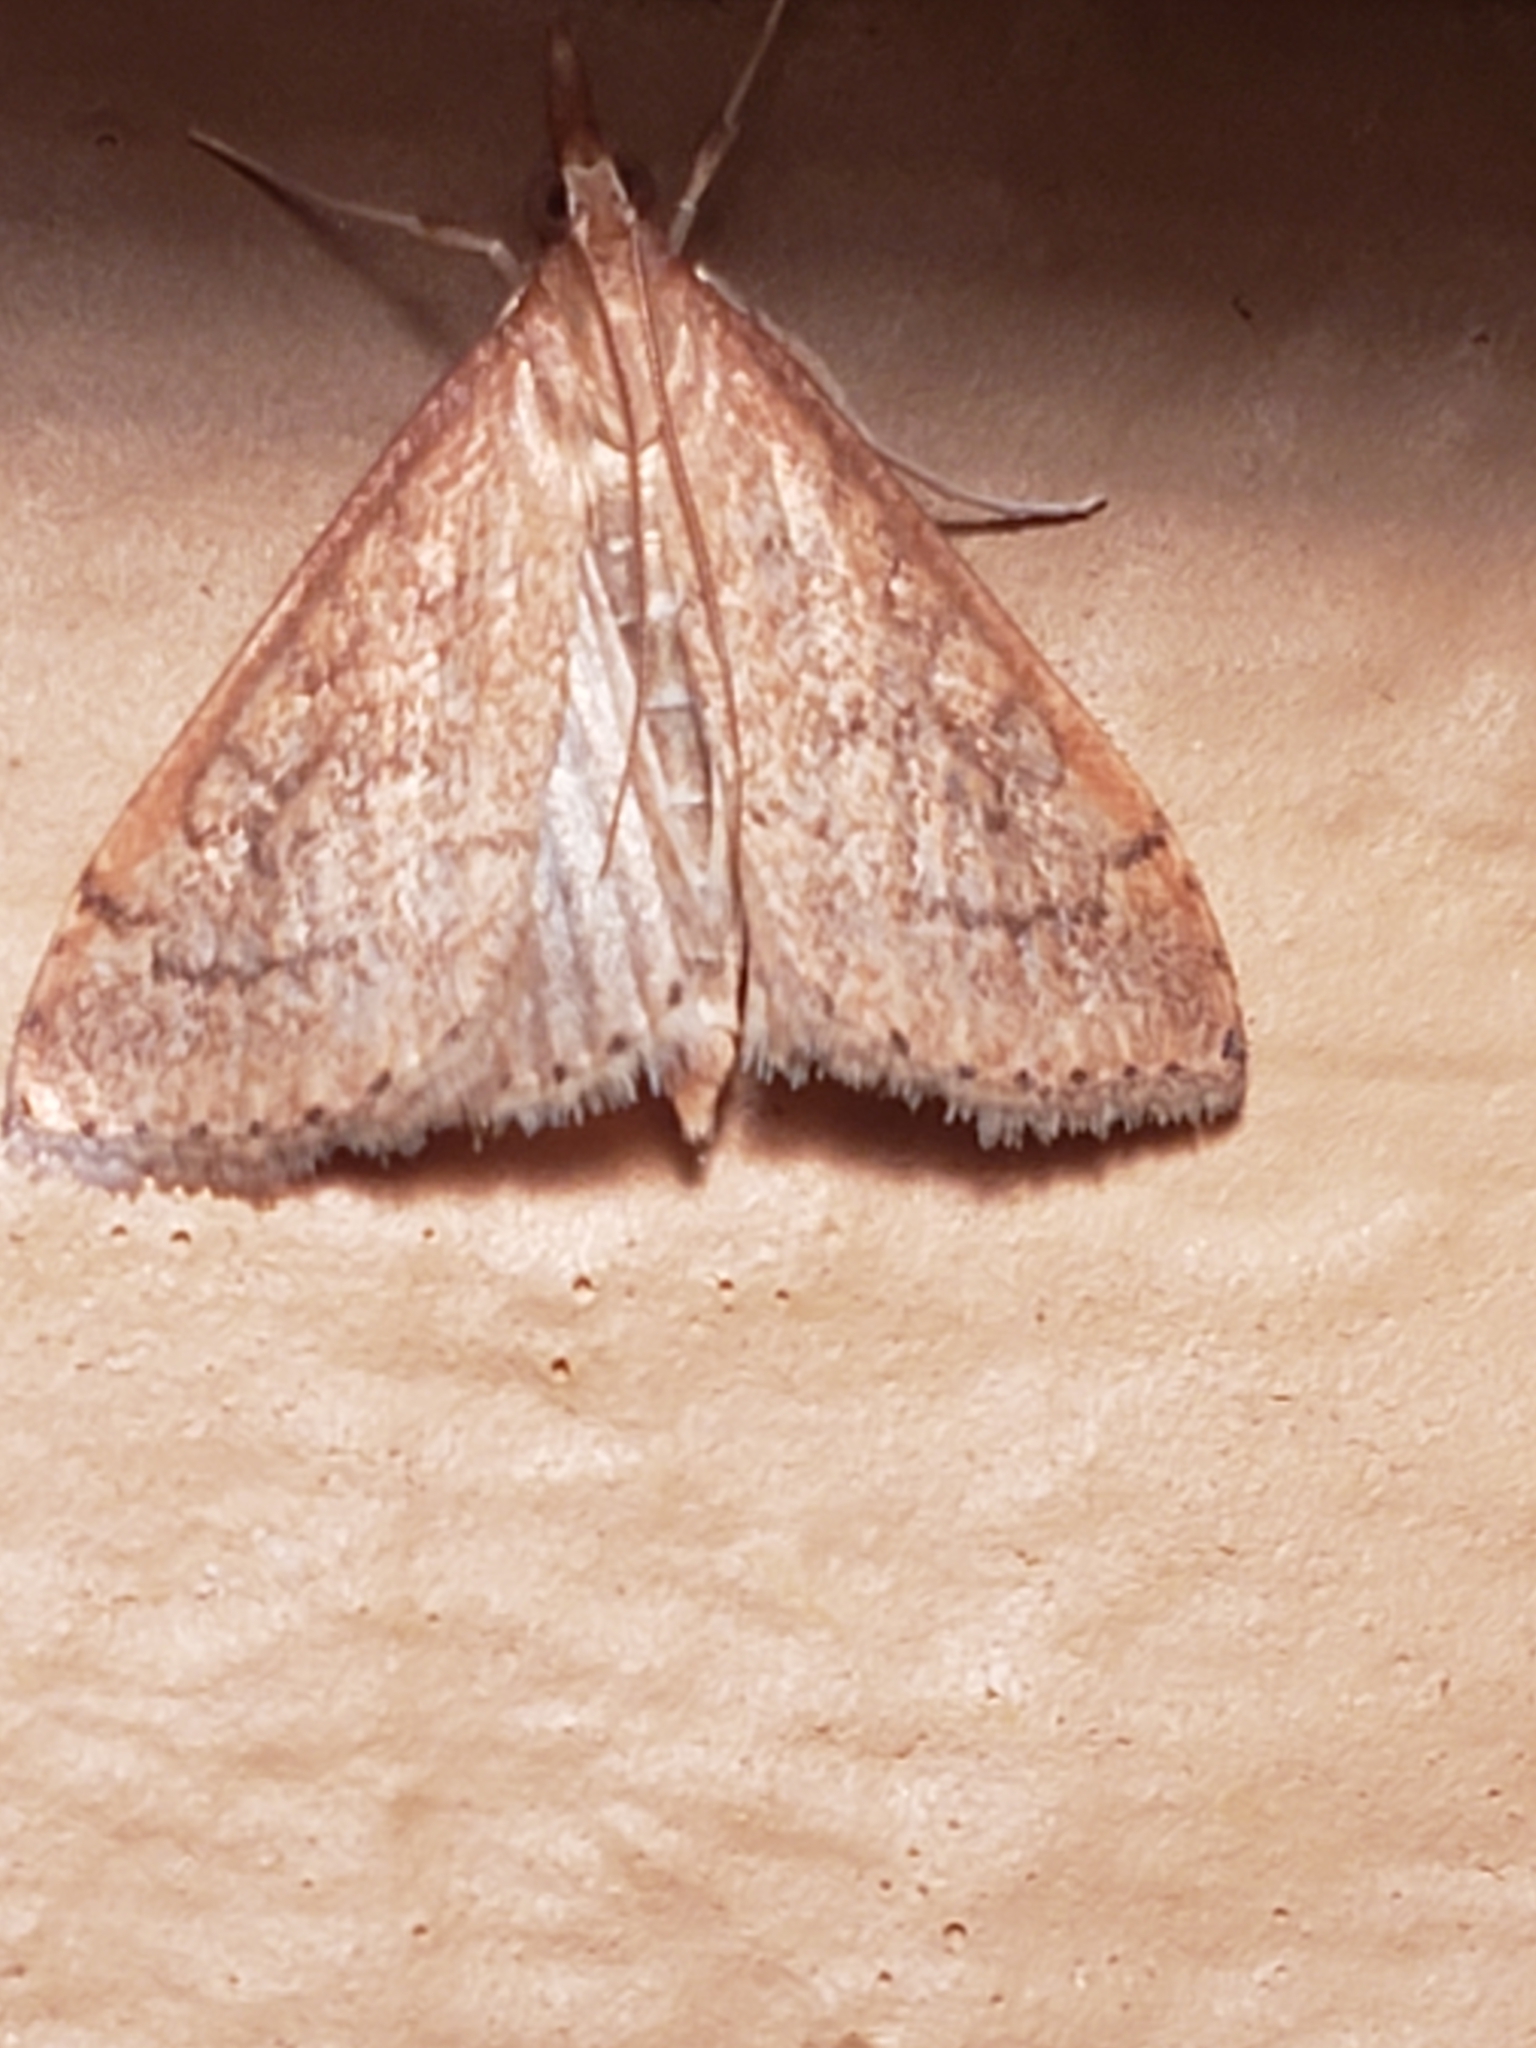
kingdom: Animalia
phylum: Arthropoda
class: Insecta
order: Lepidoptera
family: Crambidae
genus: Udea
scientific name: Udea rubigalis
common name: Celery leaftier moth
